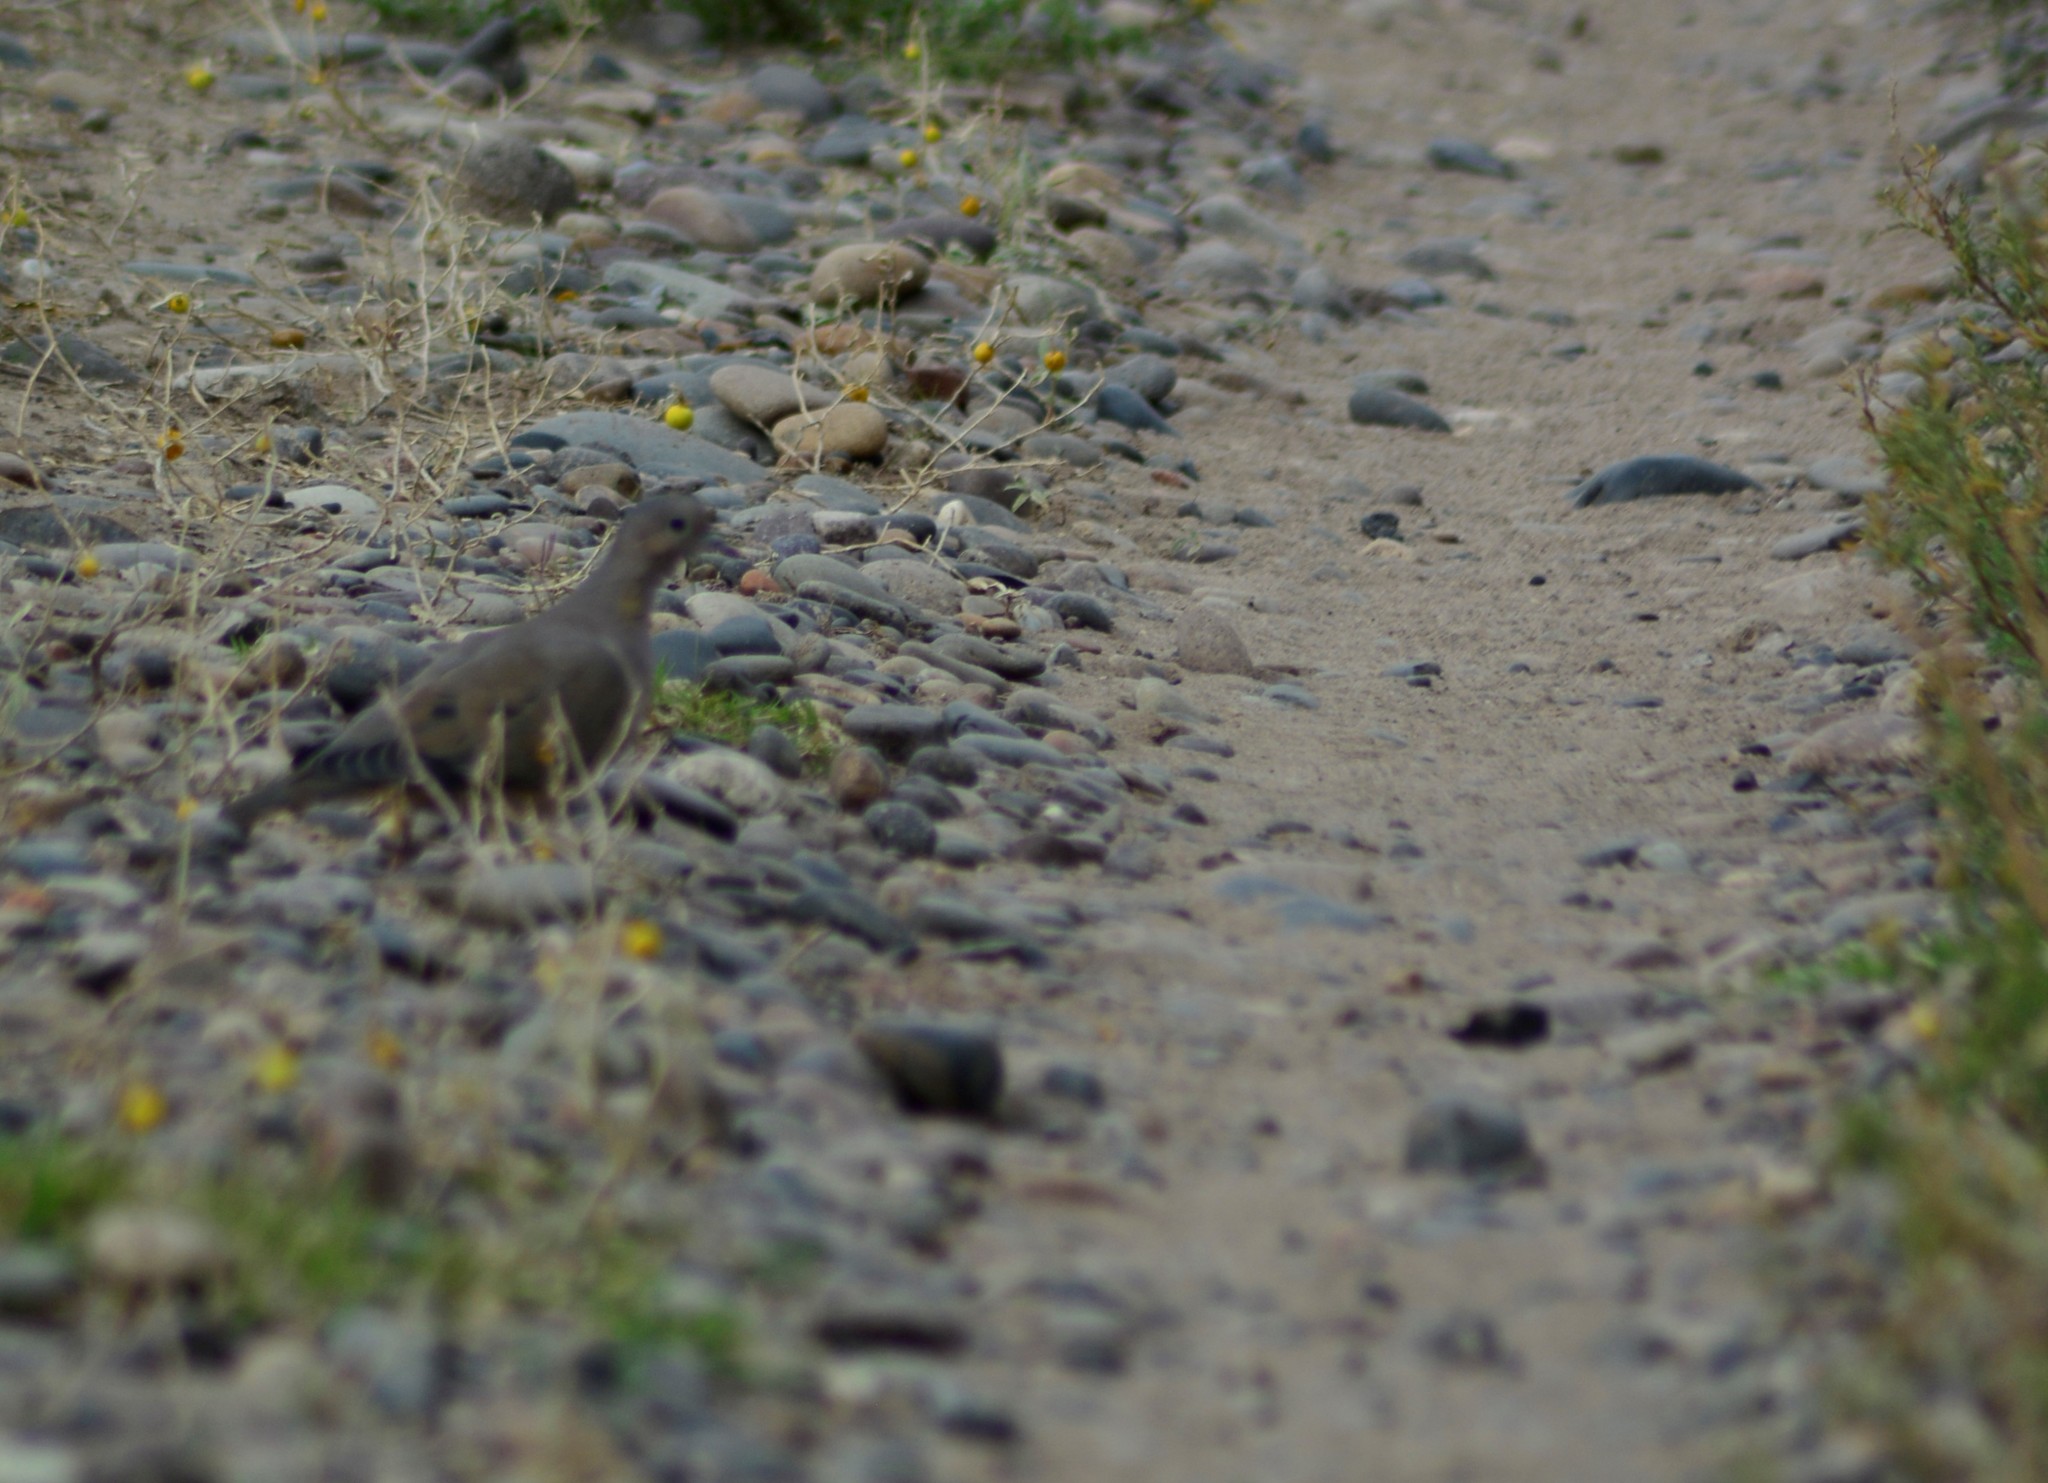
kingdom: Animalia
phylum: Chordata
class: Aves
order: Columbiformes
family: Columbidae
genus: Zenaida
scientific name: Zenaida auriculata
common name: Eared dove
